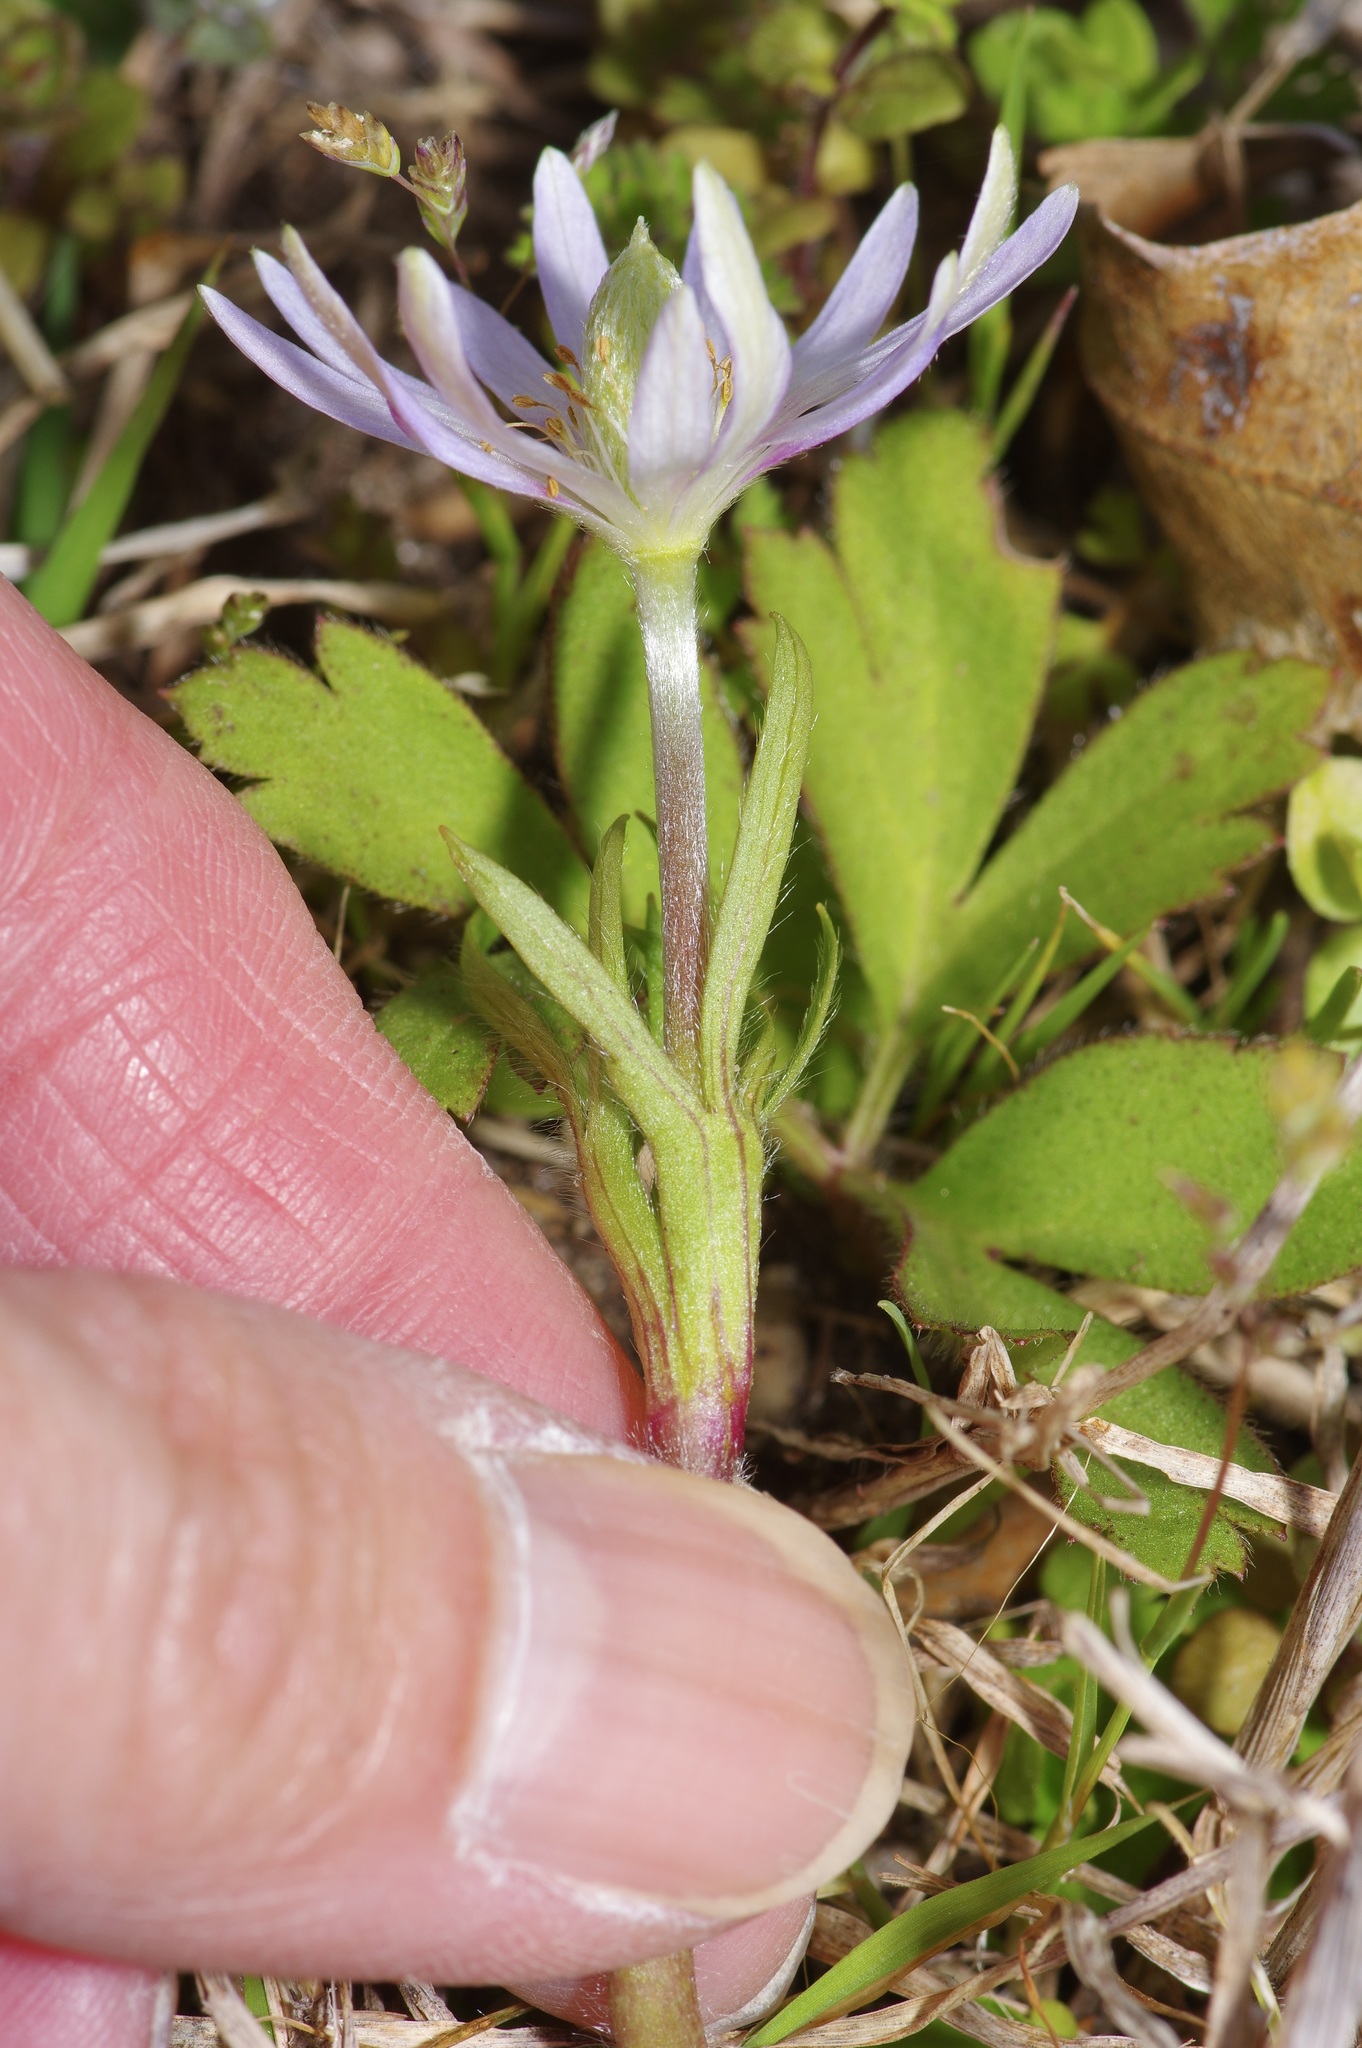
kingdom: Plantae
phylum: Tracheophyta
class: Magnoliopsida
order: Ranunculales
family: Ranunculaceae
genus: Anemone
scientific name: Anemone berlandieri
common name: Ten-petal anemone
